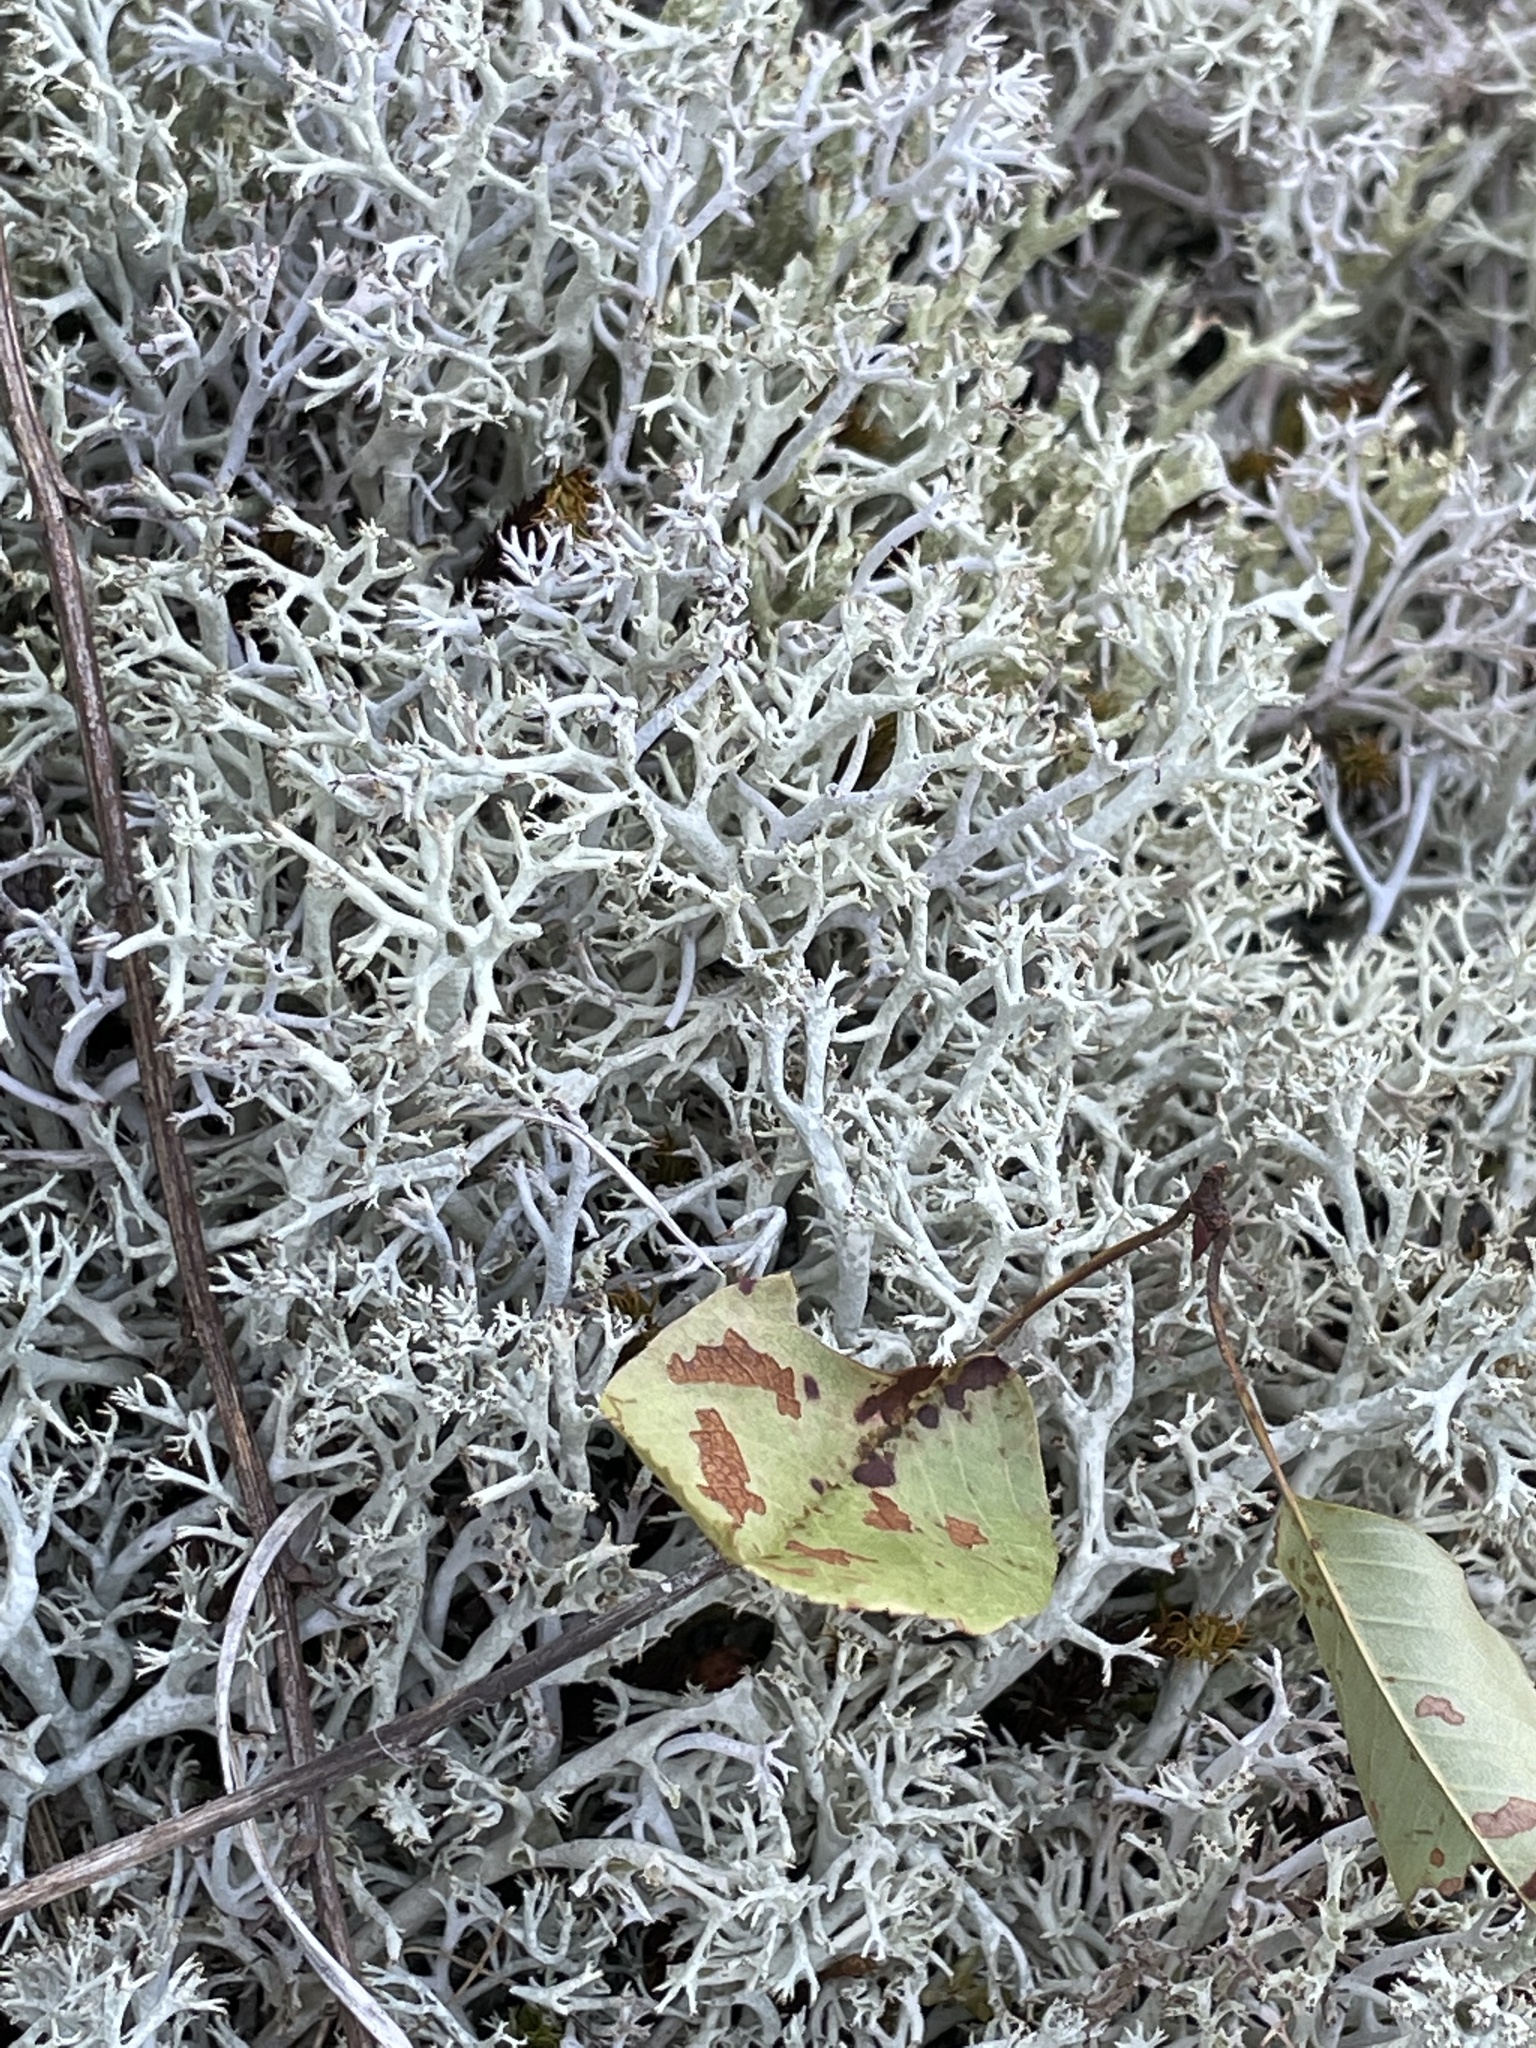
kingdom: Fungi
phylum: Ascomycota
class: Lecanoromycetes
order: Lecanorales
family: Cladoniaceae
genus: Cladonia
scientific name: Cladonia rangiferina
